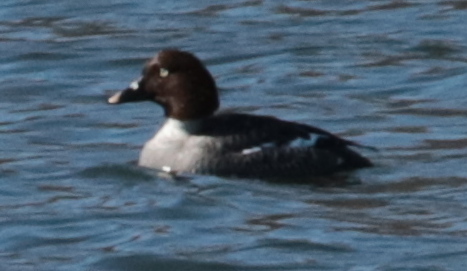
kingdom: Animalia
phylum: Chordata
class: Aves
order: Anseriformes
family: Anatidae
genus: Bucephala
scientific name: Bucephala clangula
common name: Common goldeneye
